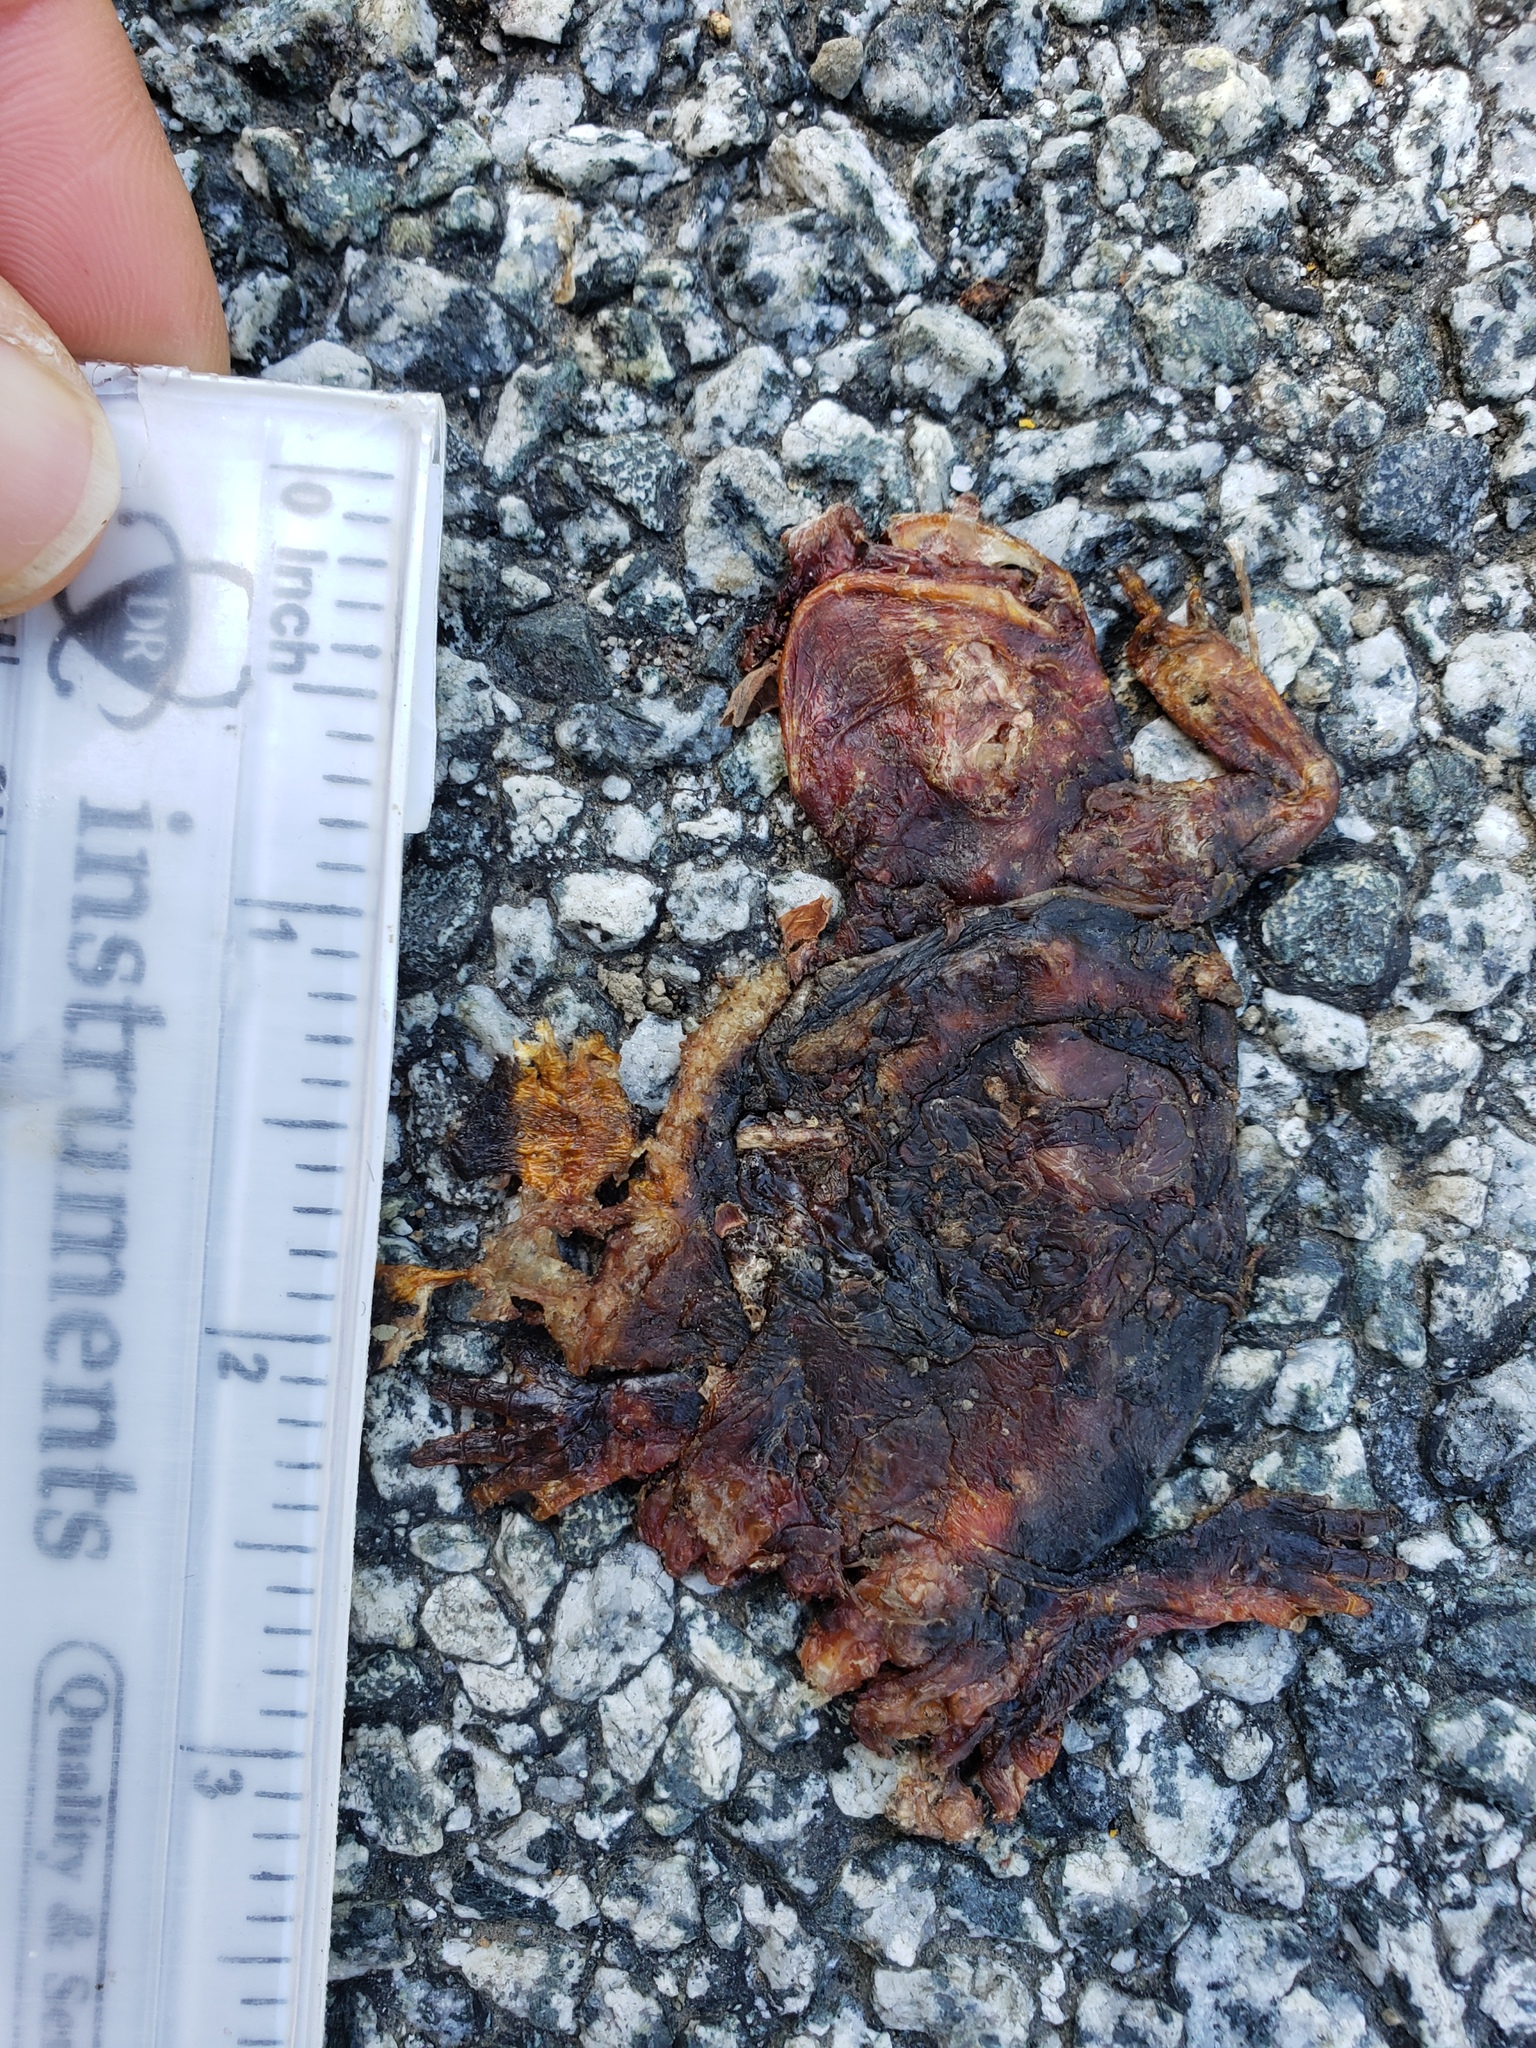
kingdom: Animalia
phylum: Chordata
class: Amphibia
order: Caudata
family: Salamandridae
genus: Taricha
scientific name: Taricha
